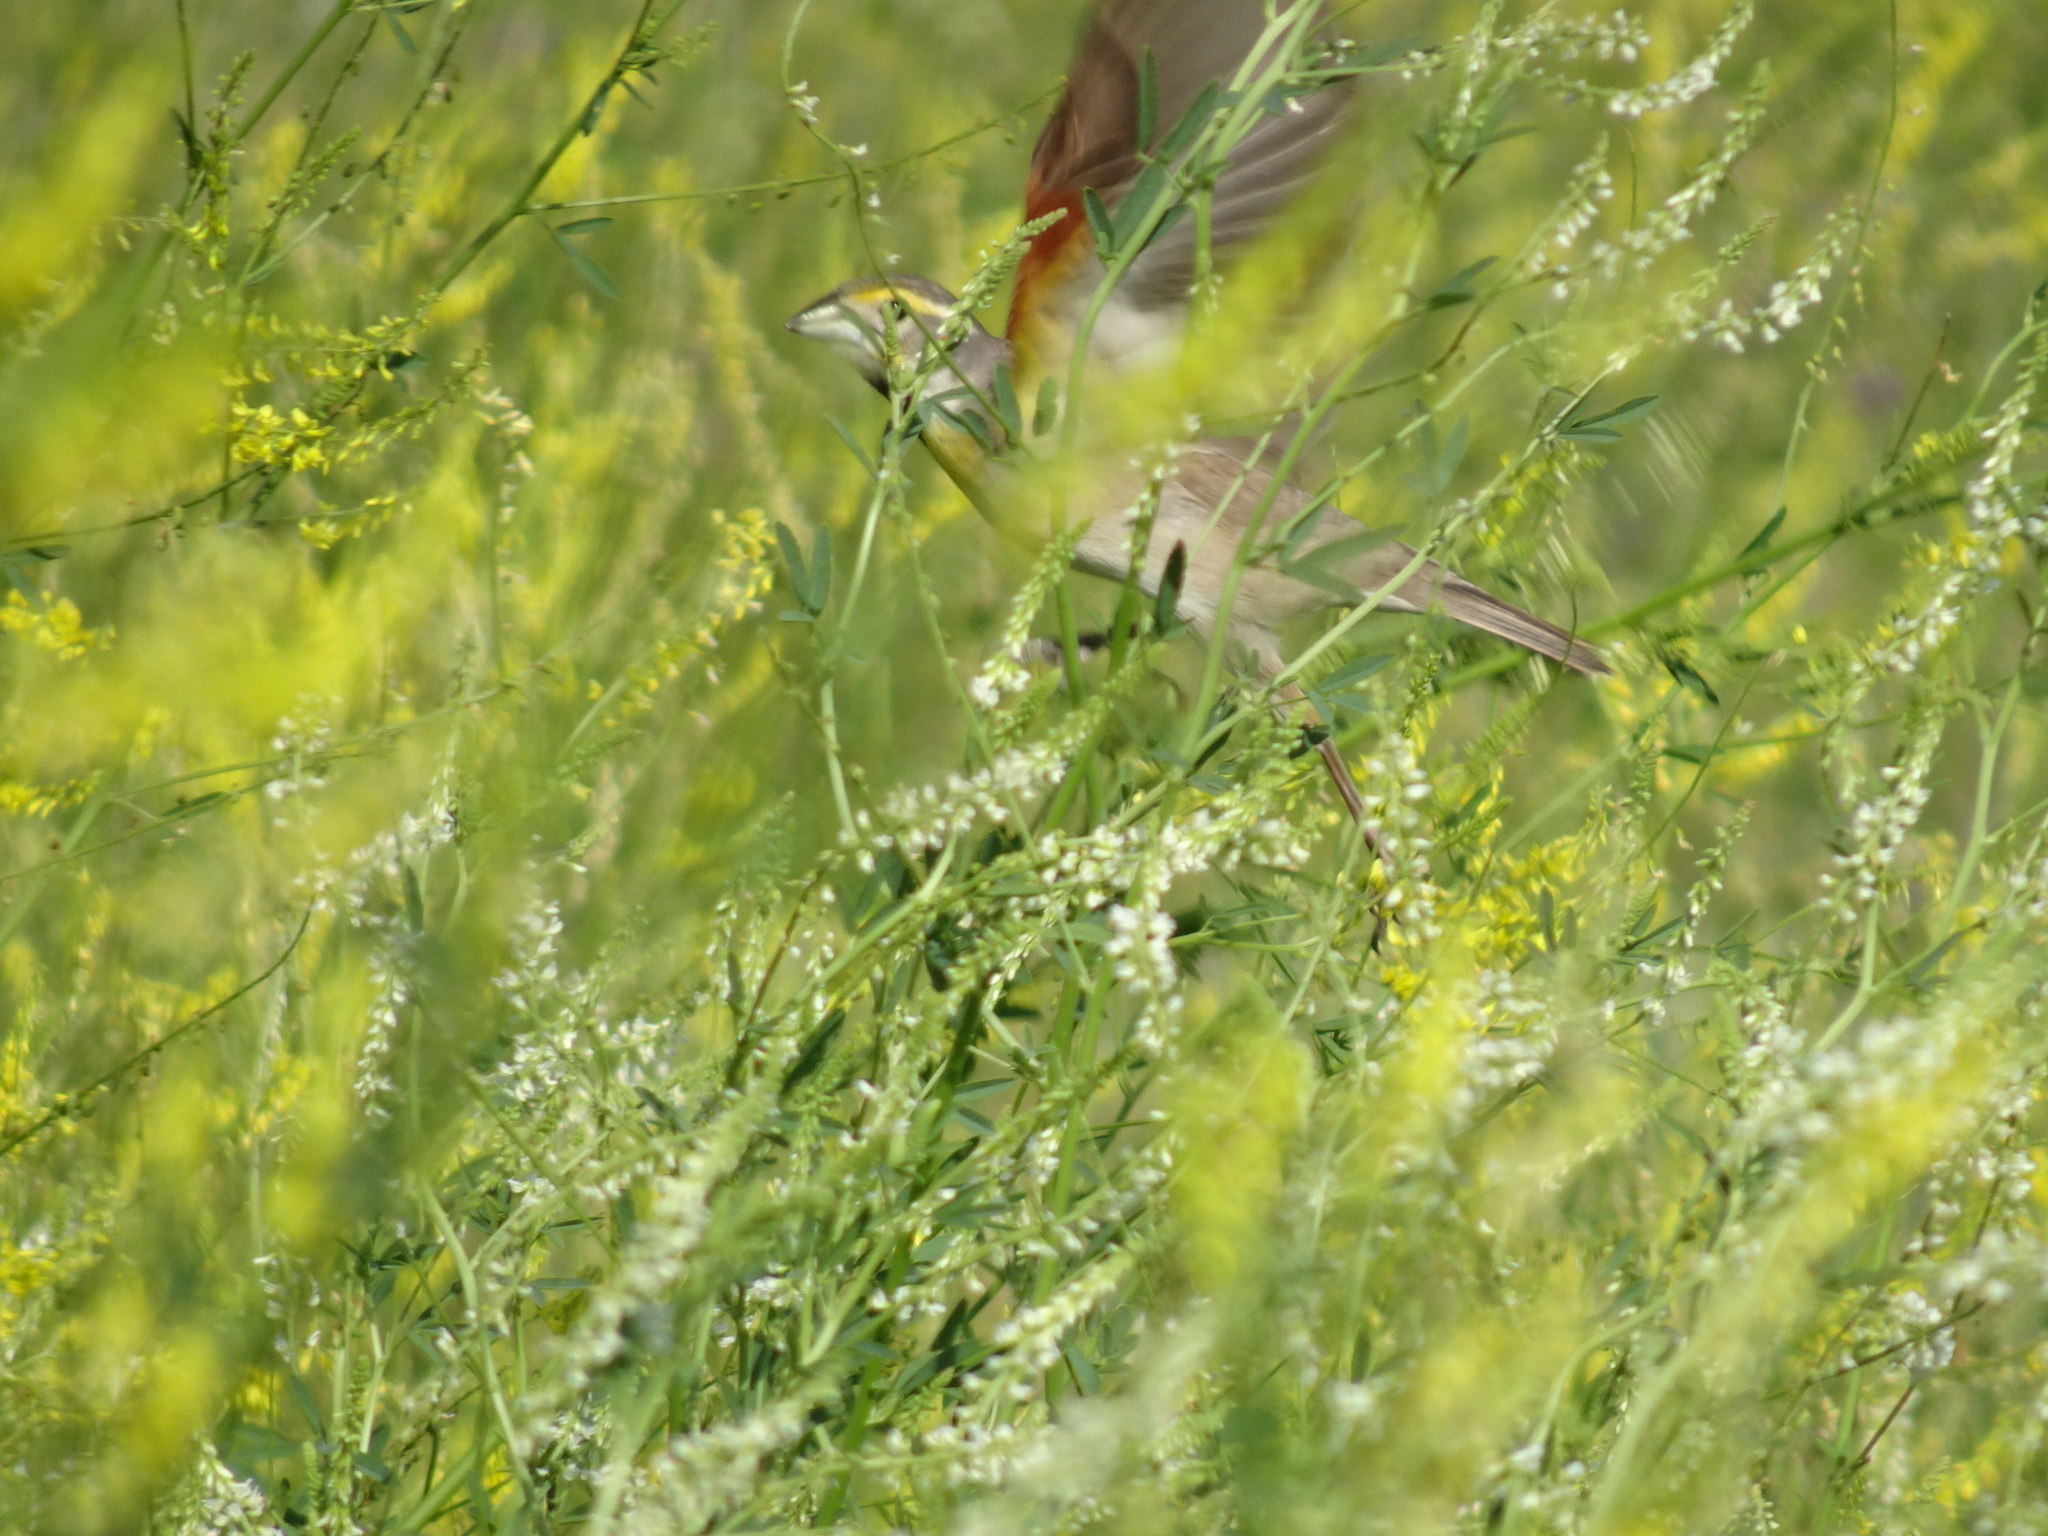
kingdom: Animalia
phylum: Chordata
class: Aves
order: Passeriformes
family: Cardinalidae
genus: Spiza
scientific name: Spiza americana
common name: Dickcissel
